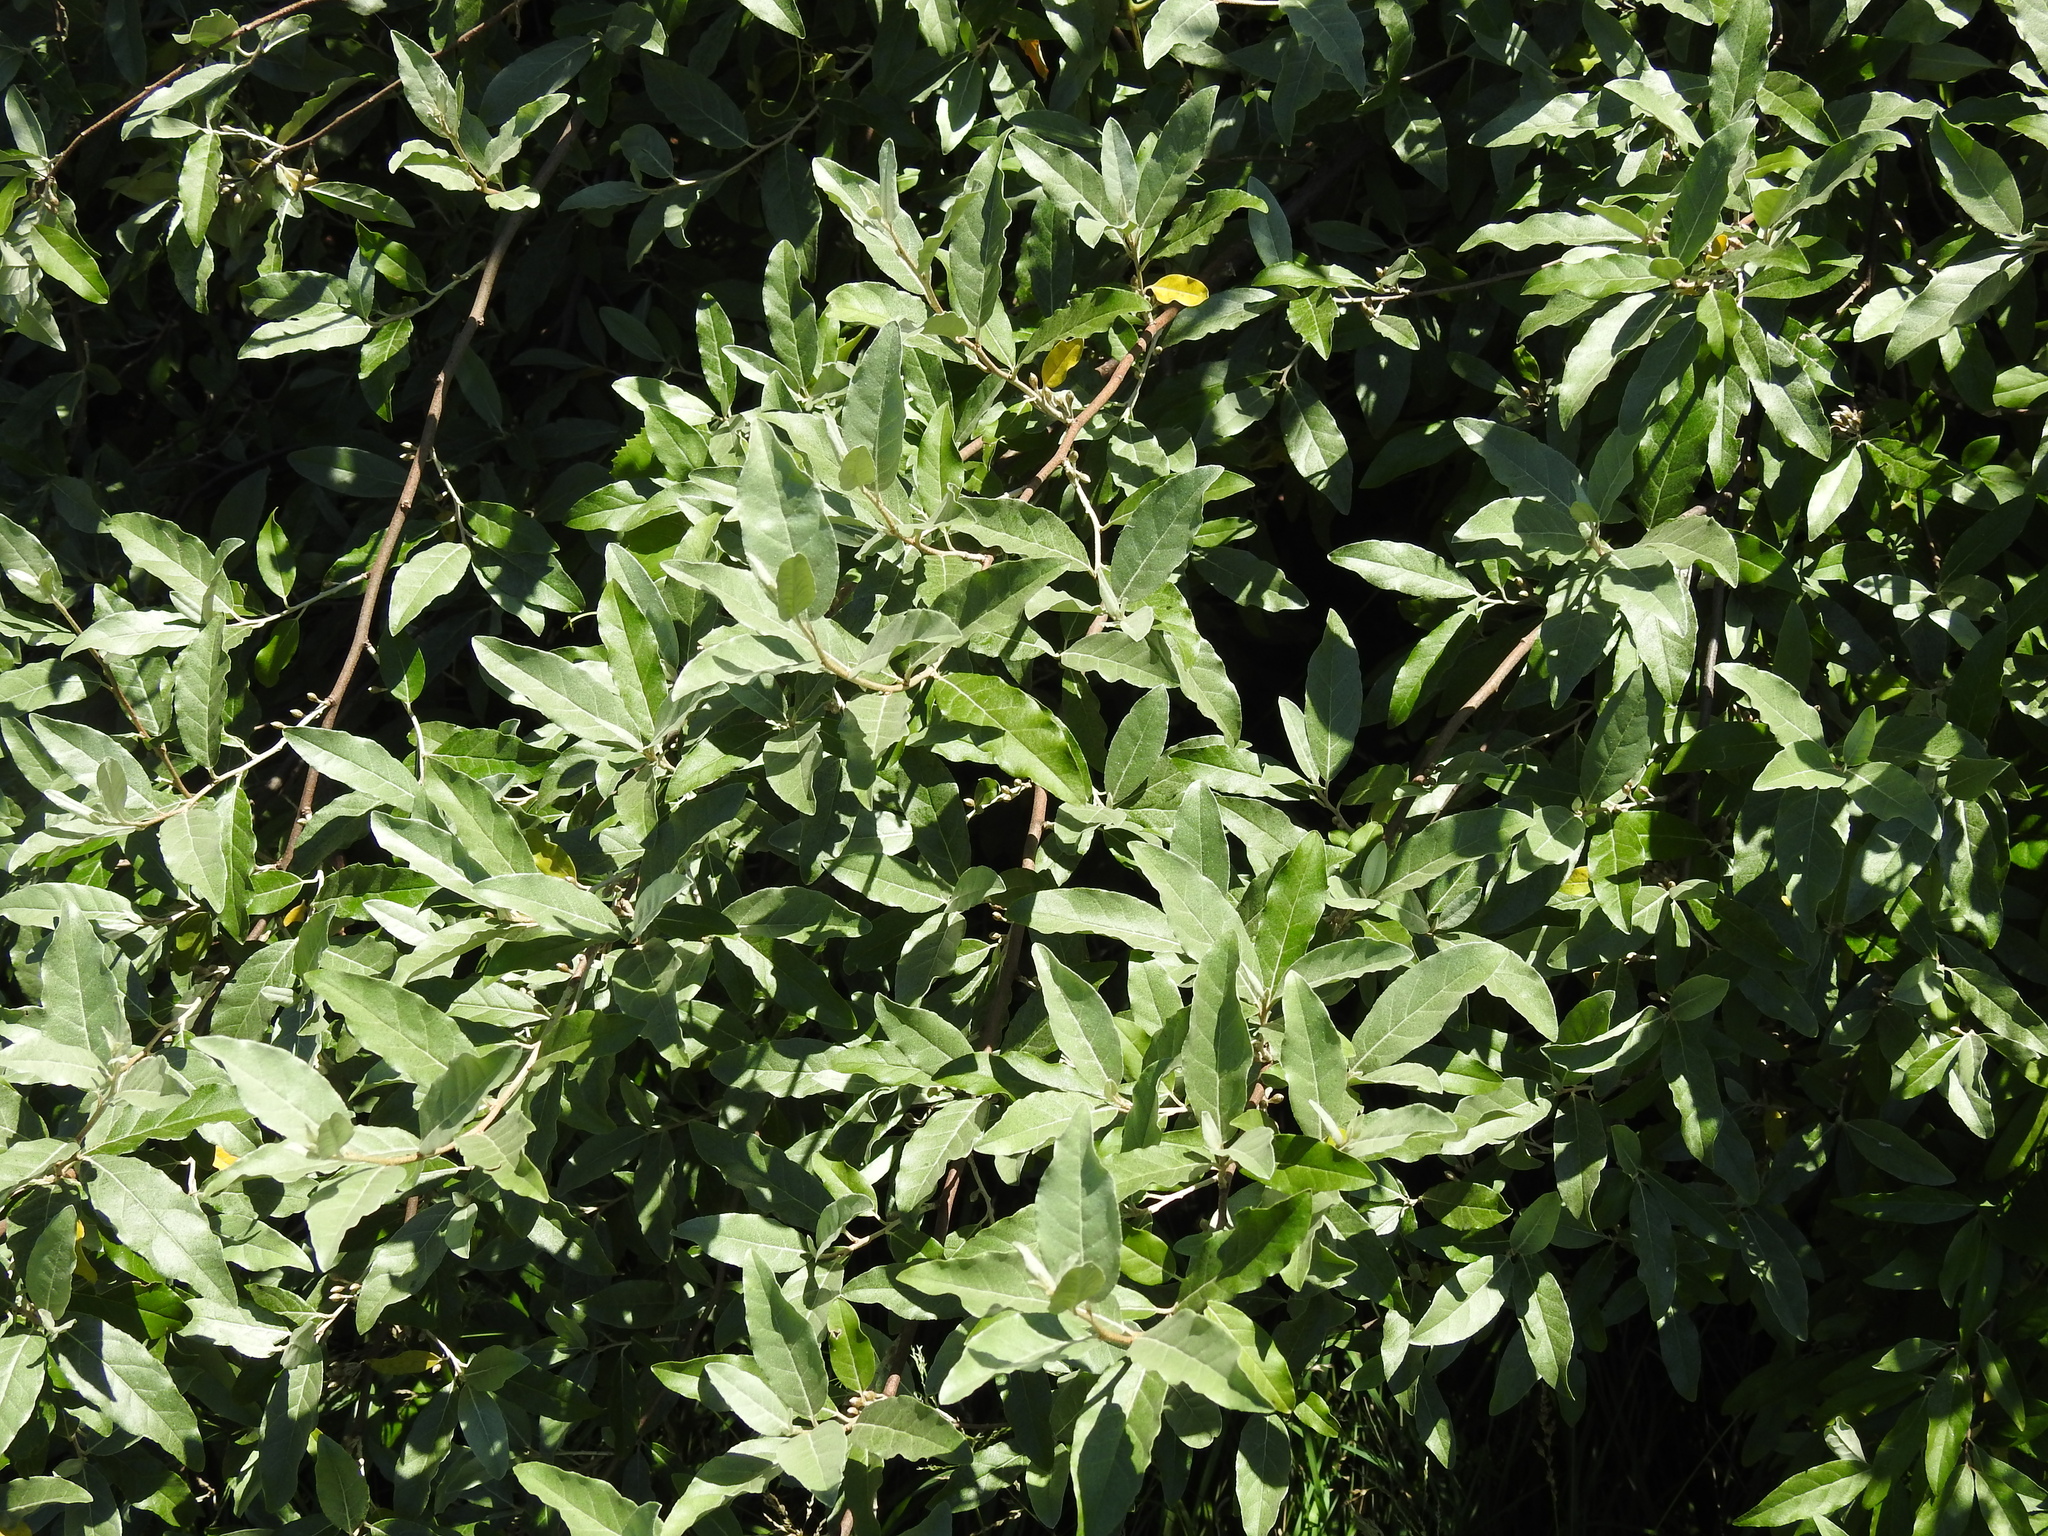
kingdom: Plantae
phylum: Tracheophyta
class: Magnoliopsida
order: Rosales
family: Elaeagnaceae
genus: Elaeagnus
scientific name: Elaeagnus umbellata
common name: Autumn olive
